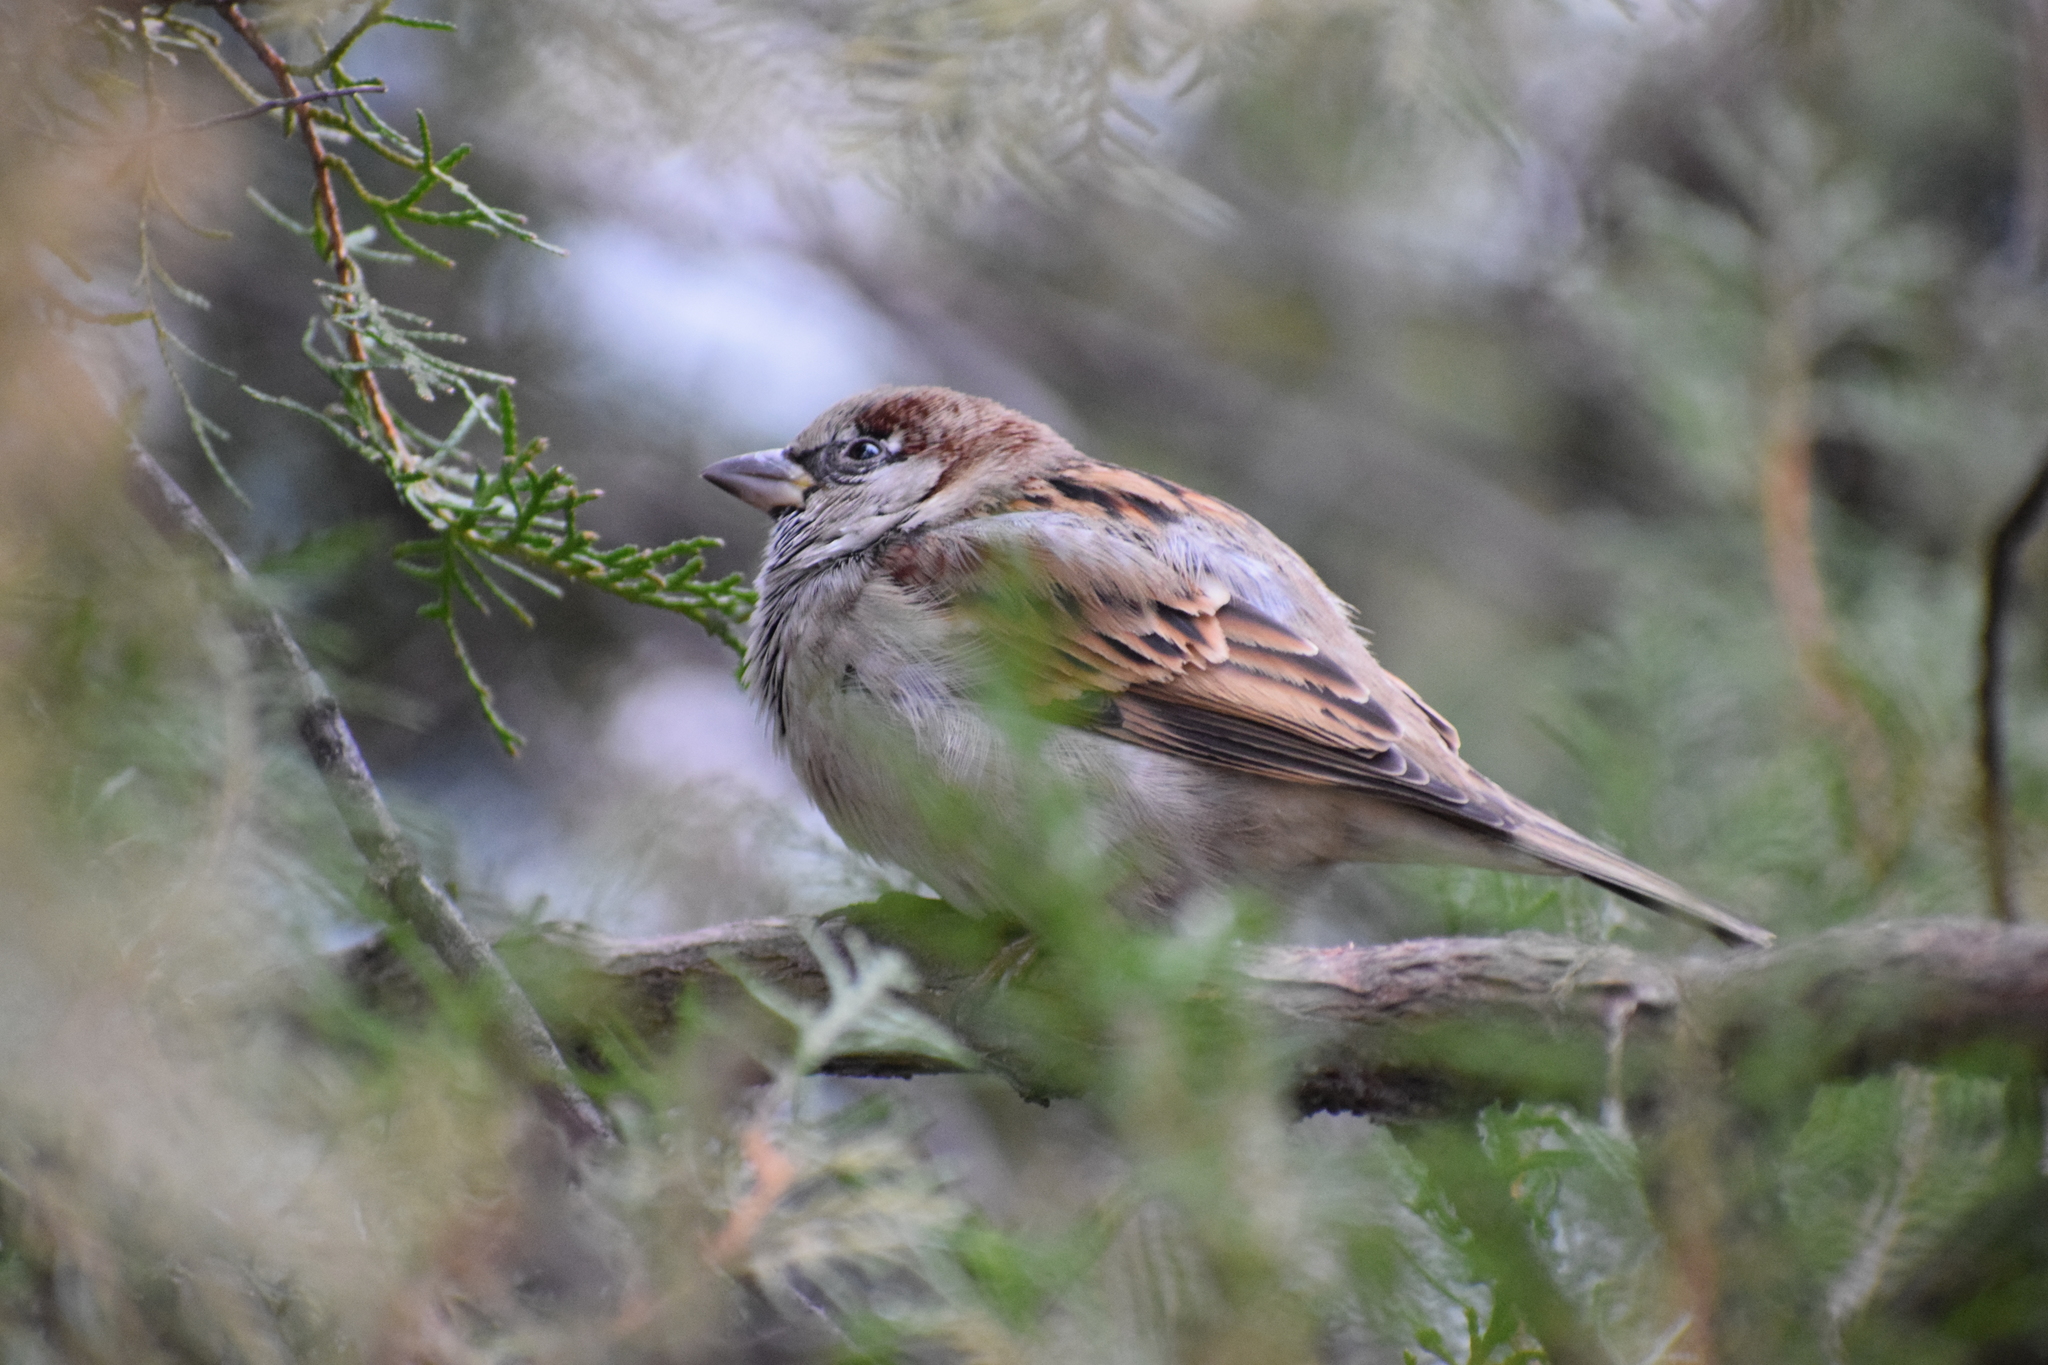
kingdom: Animalia
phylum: Chordata
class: Aves
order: Passeriformes
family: Passeridae
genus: Passer
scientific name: Passer domesticus
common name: House sparrow
